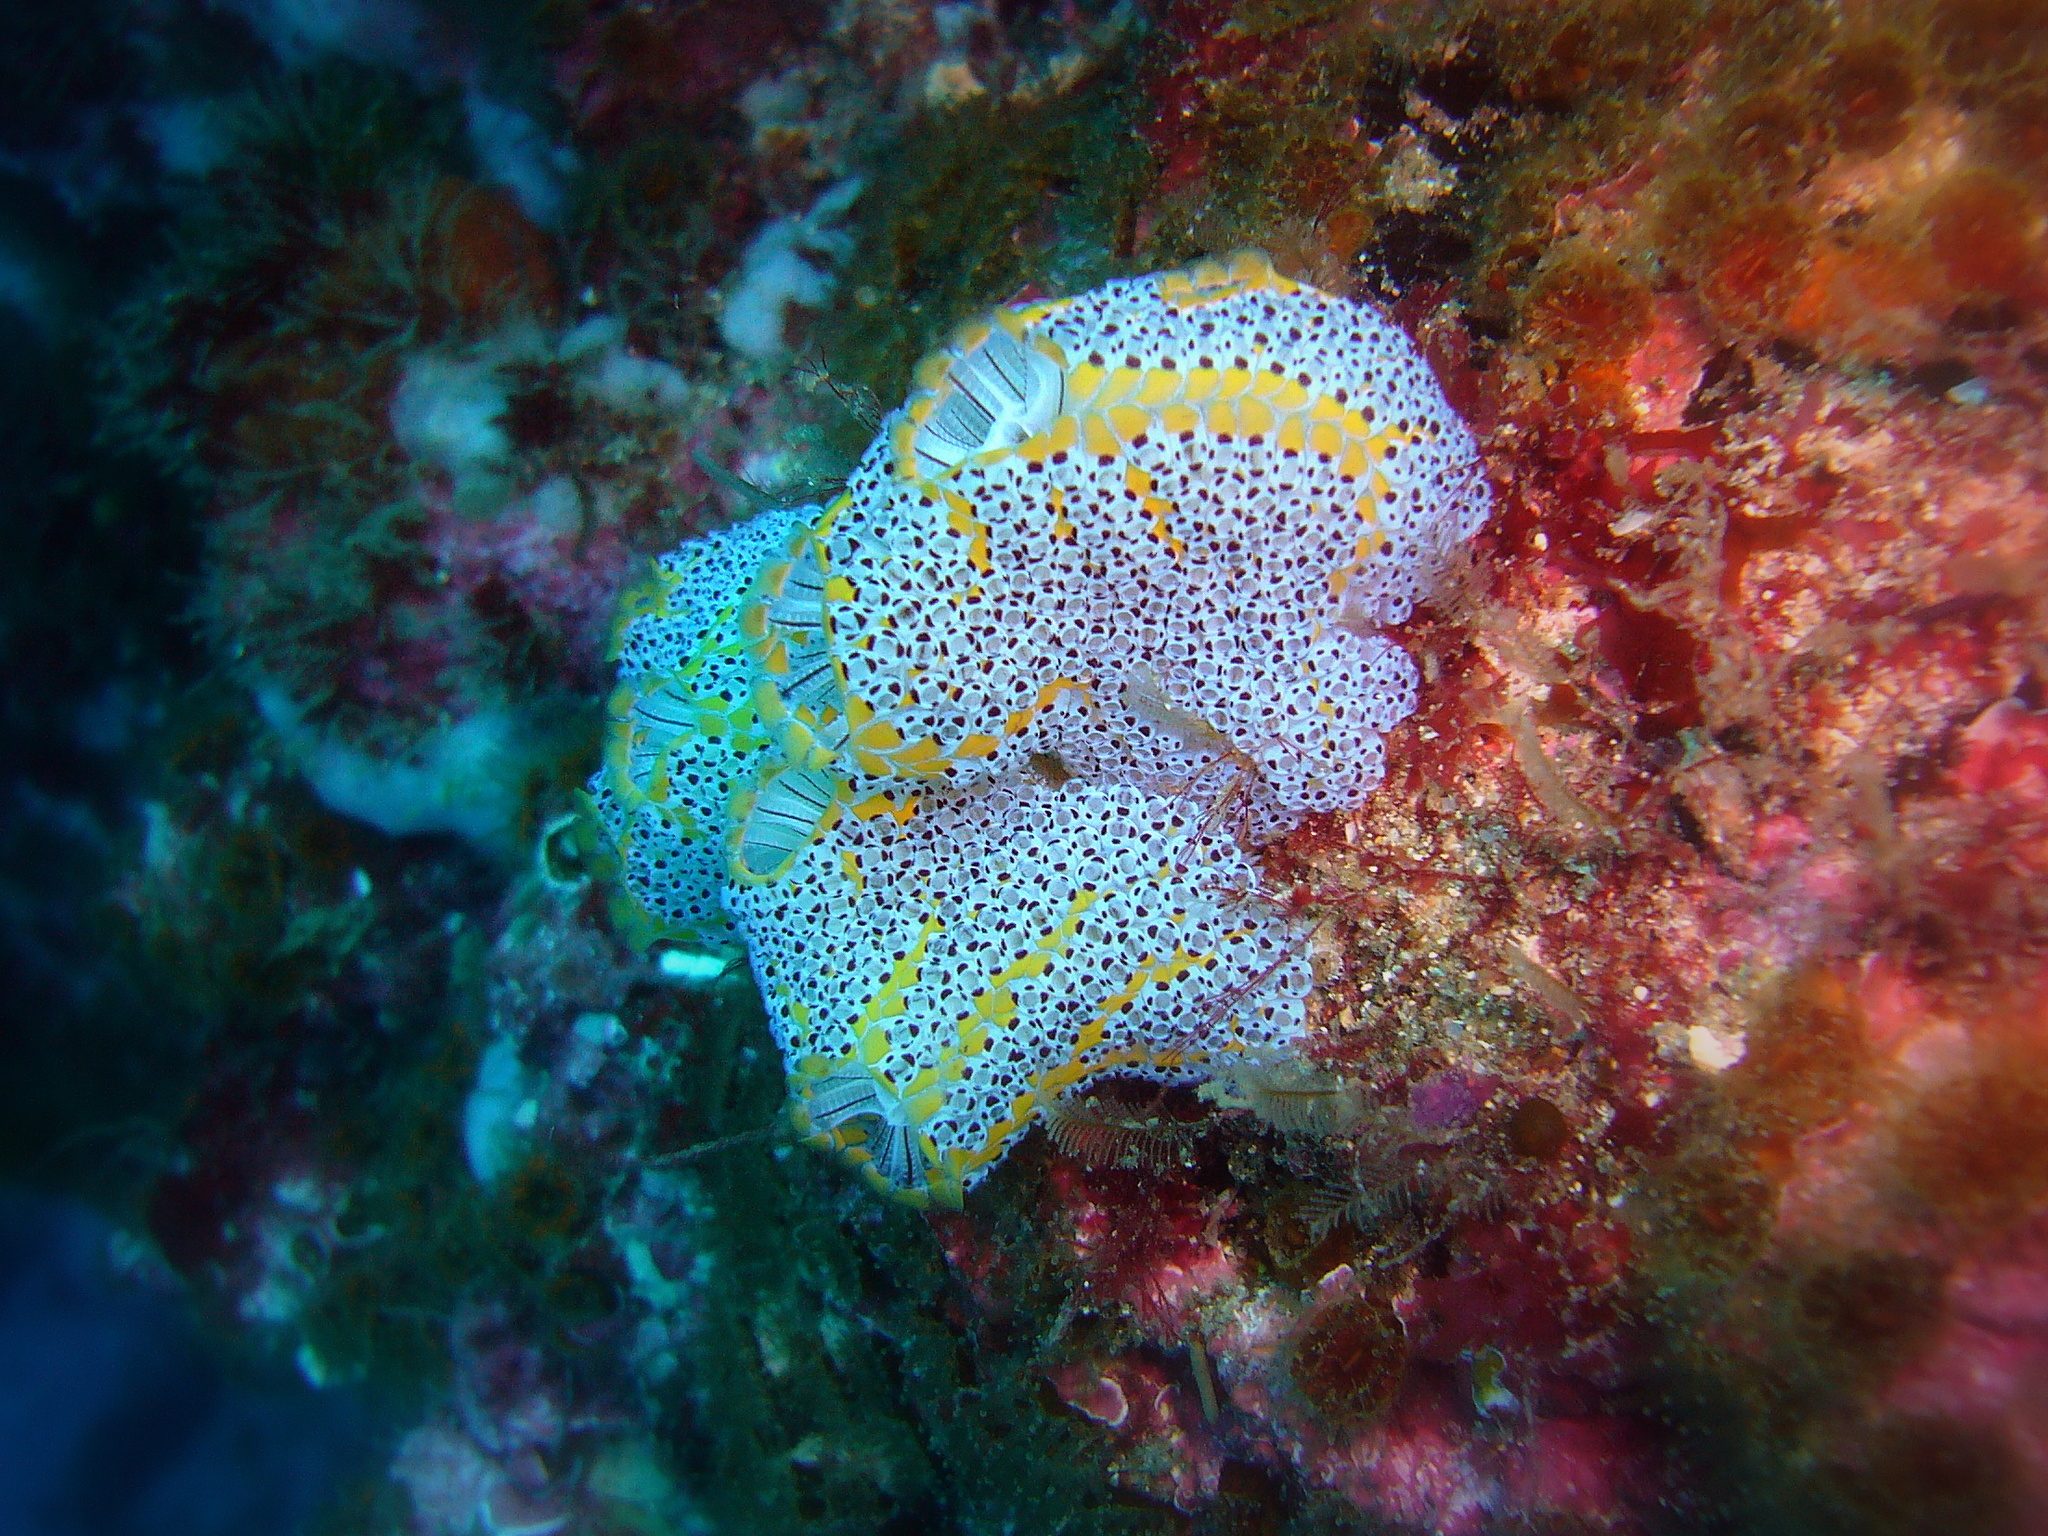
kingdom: Animalia
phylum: Chordata
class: Ascidiacea
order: Stolidobranchia
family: Styelidae
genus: Botrylloides
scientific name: Botrylloides magnicoecus
